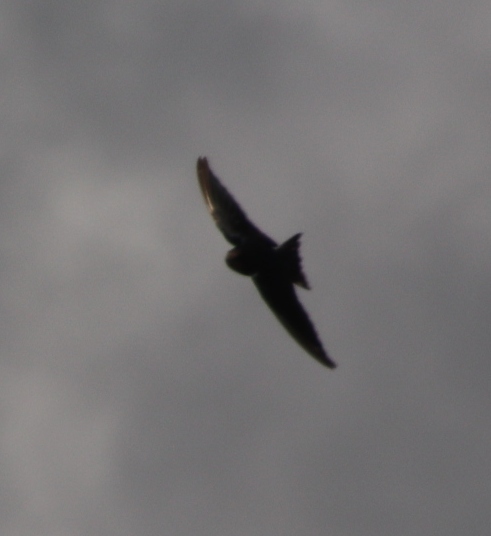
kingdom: Animalia
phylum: Chordata
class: Aves
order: Passeriformes
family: Hirundinidae
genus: Hirundo
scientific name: Hirundo rustica
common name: Barn swallow
